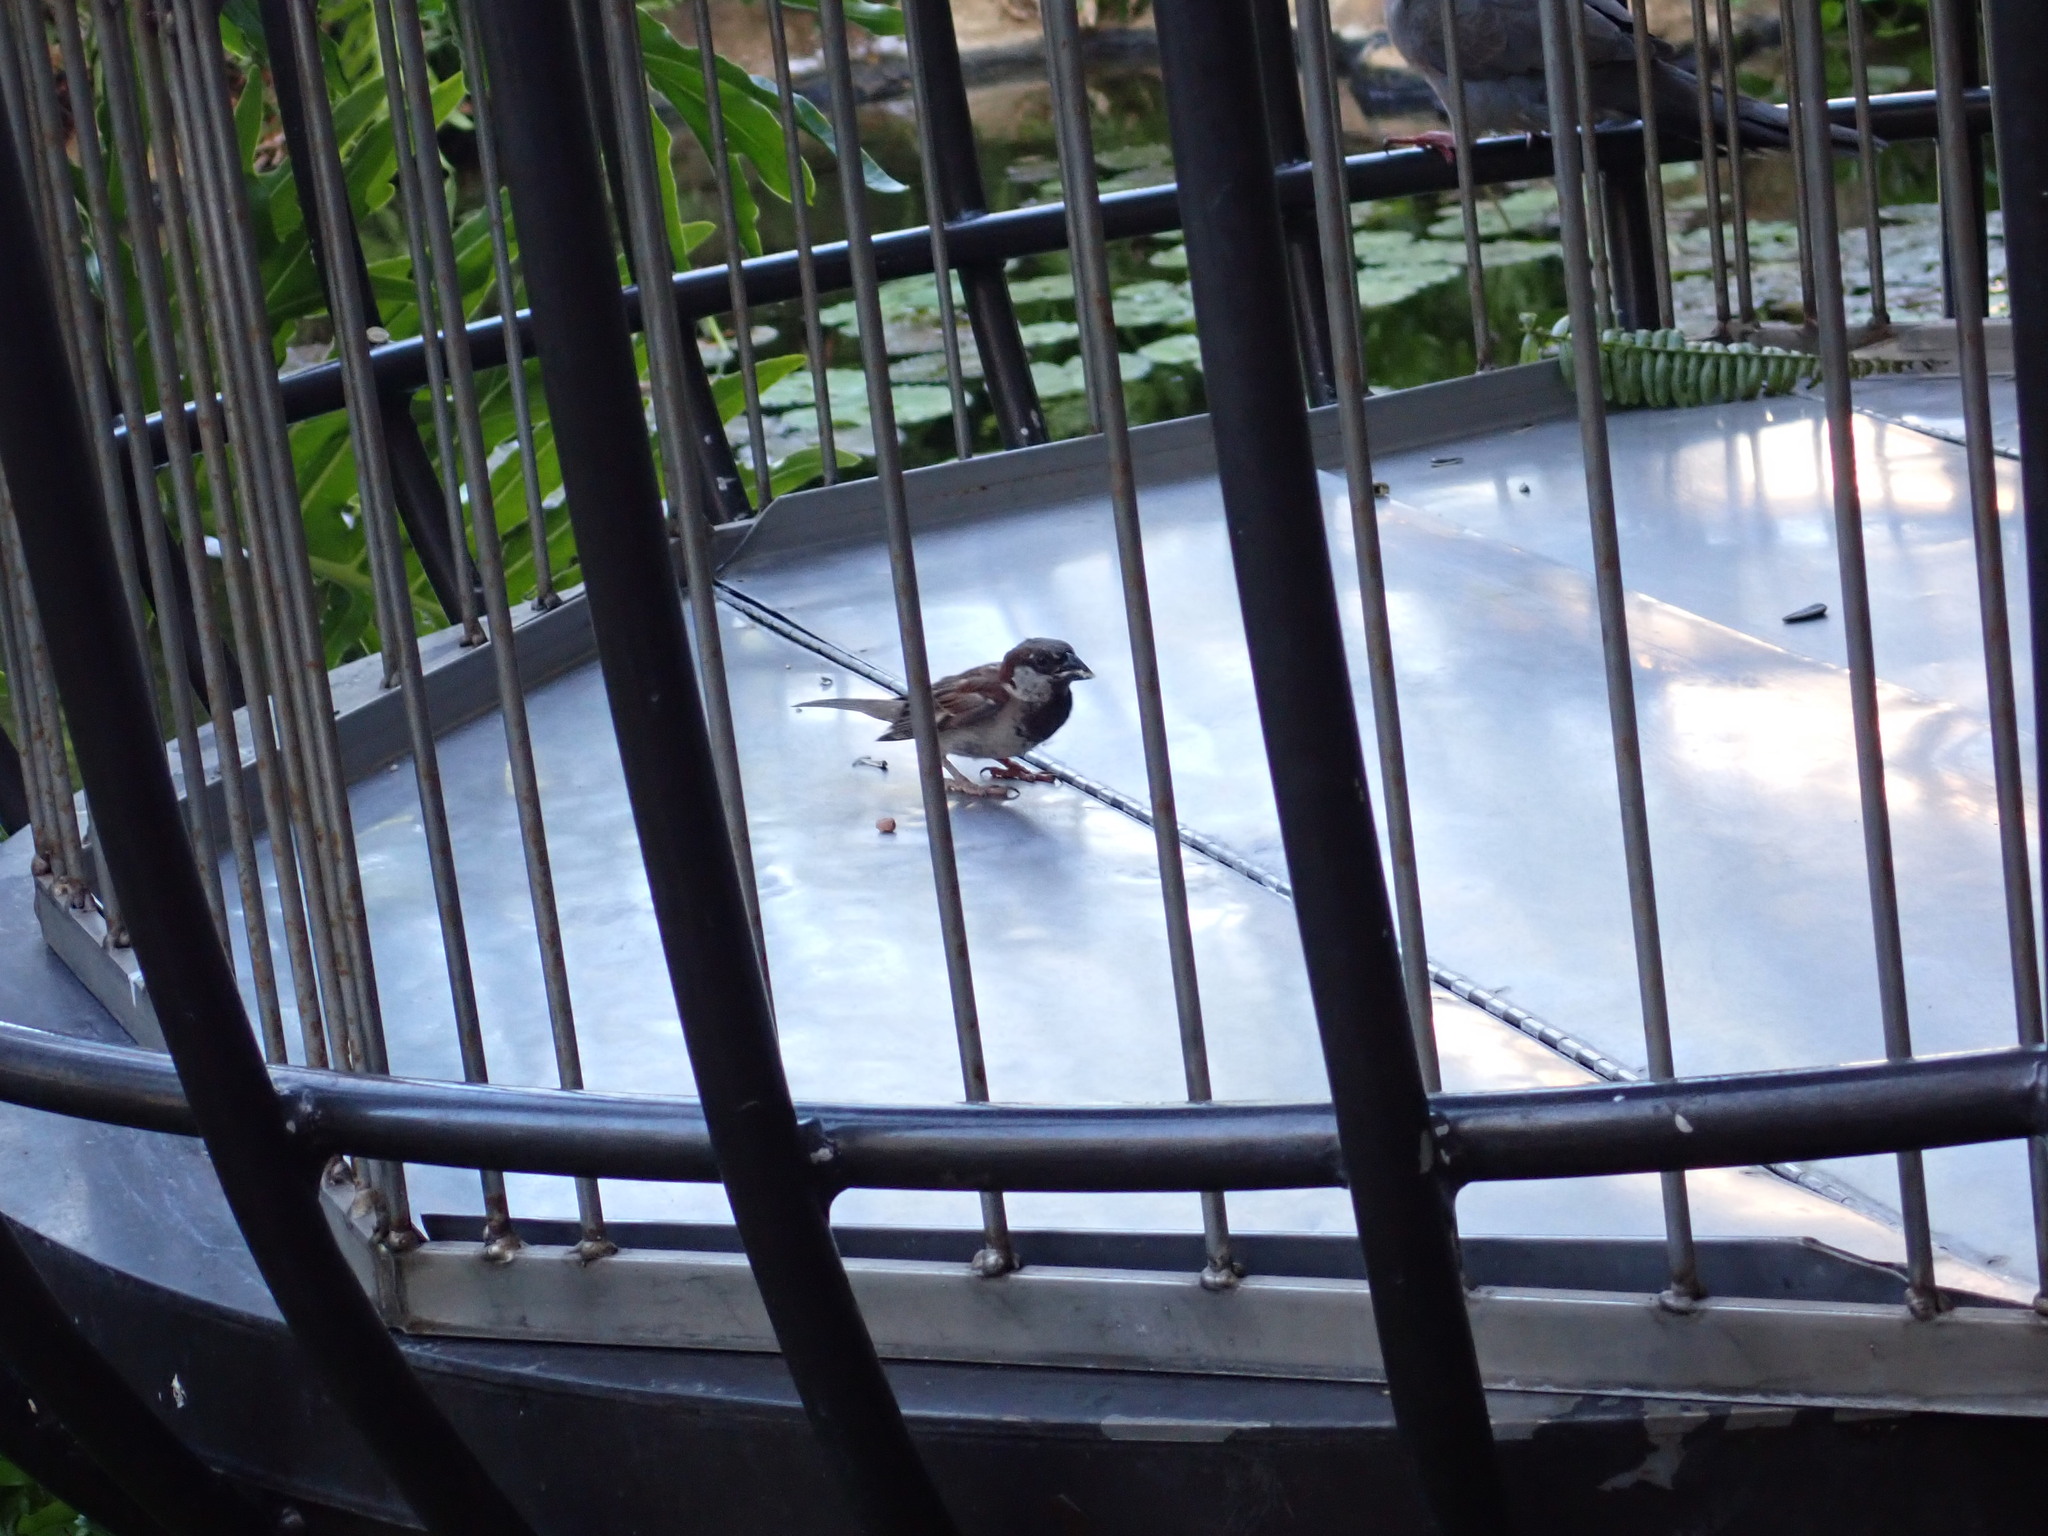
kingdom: Animalia
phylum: Chordata
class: Aves
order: Passeriformes
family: Passeridae
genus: Passer
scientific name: Passer domesticus
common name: House sparrow
